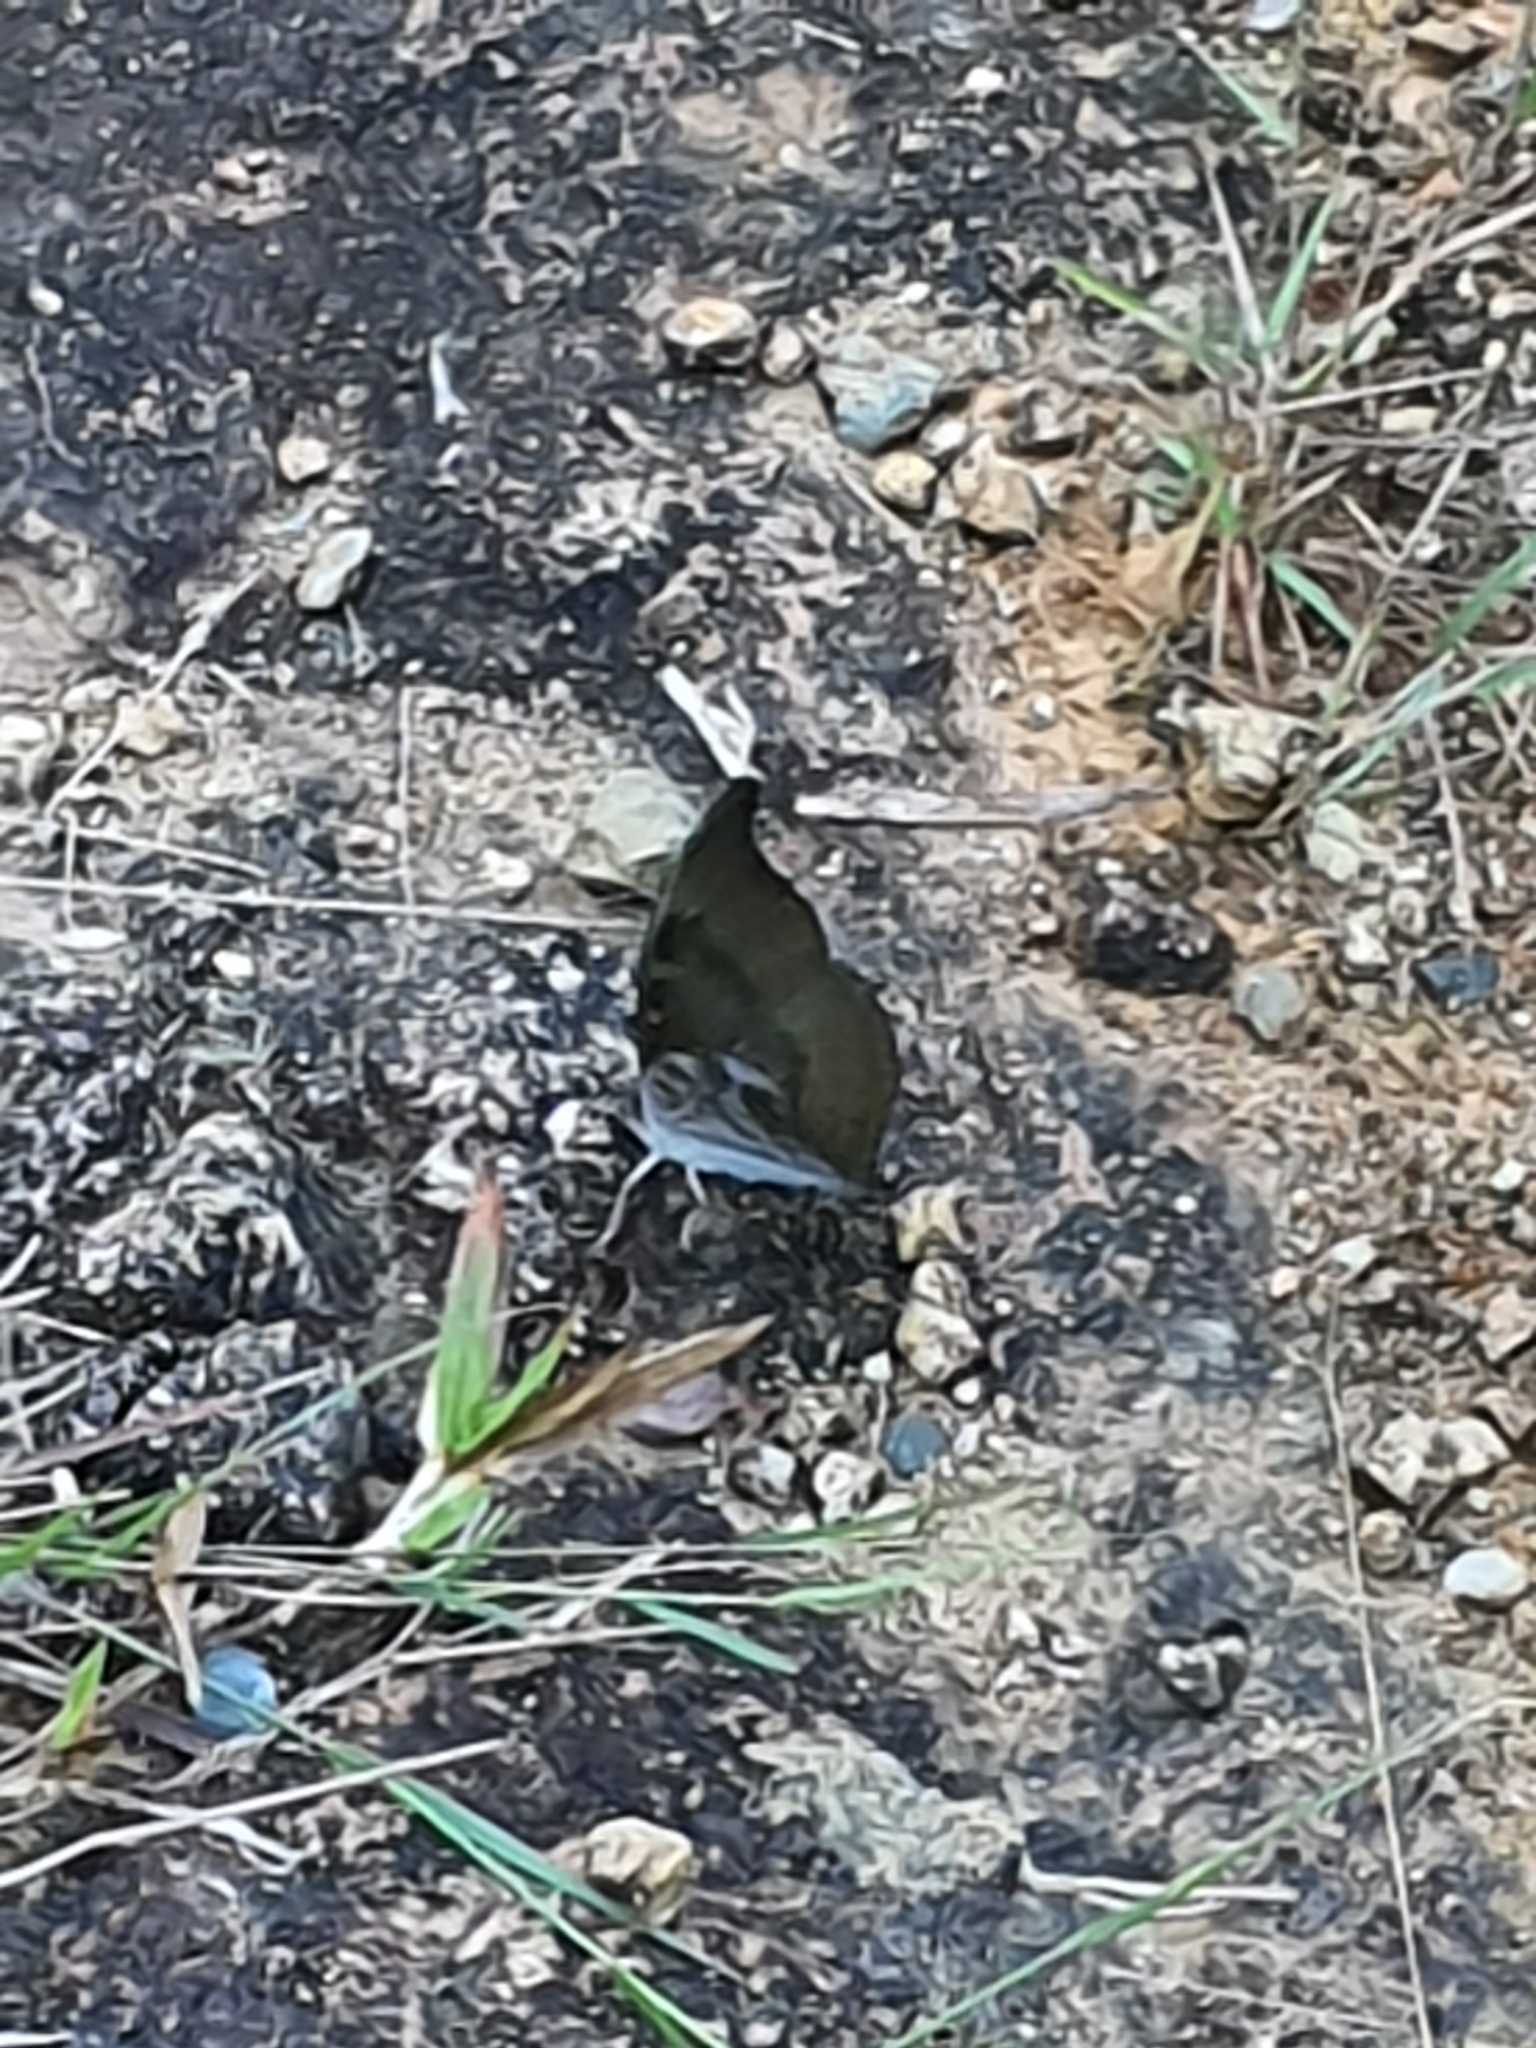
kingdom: Animalia
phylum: Arthropoda
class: Insecta
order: Lepidoptera
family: Nymphalidae
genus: Euthalia
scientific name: Euthalia Dophla evelina
